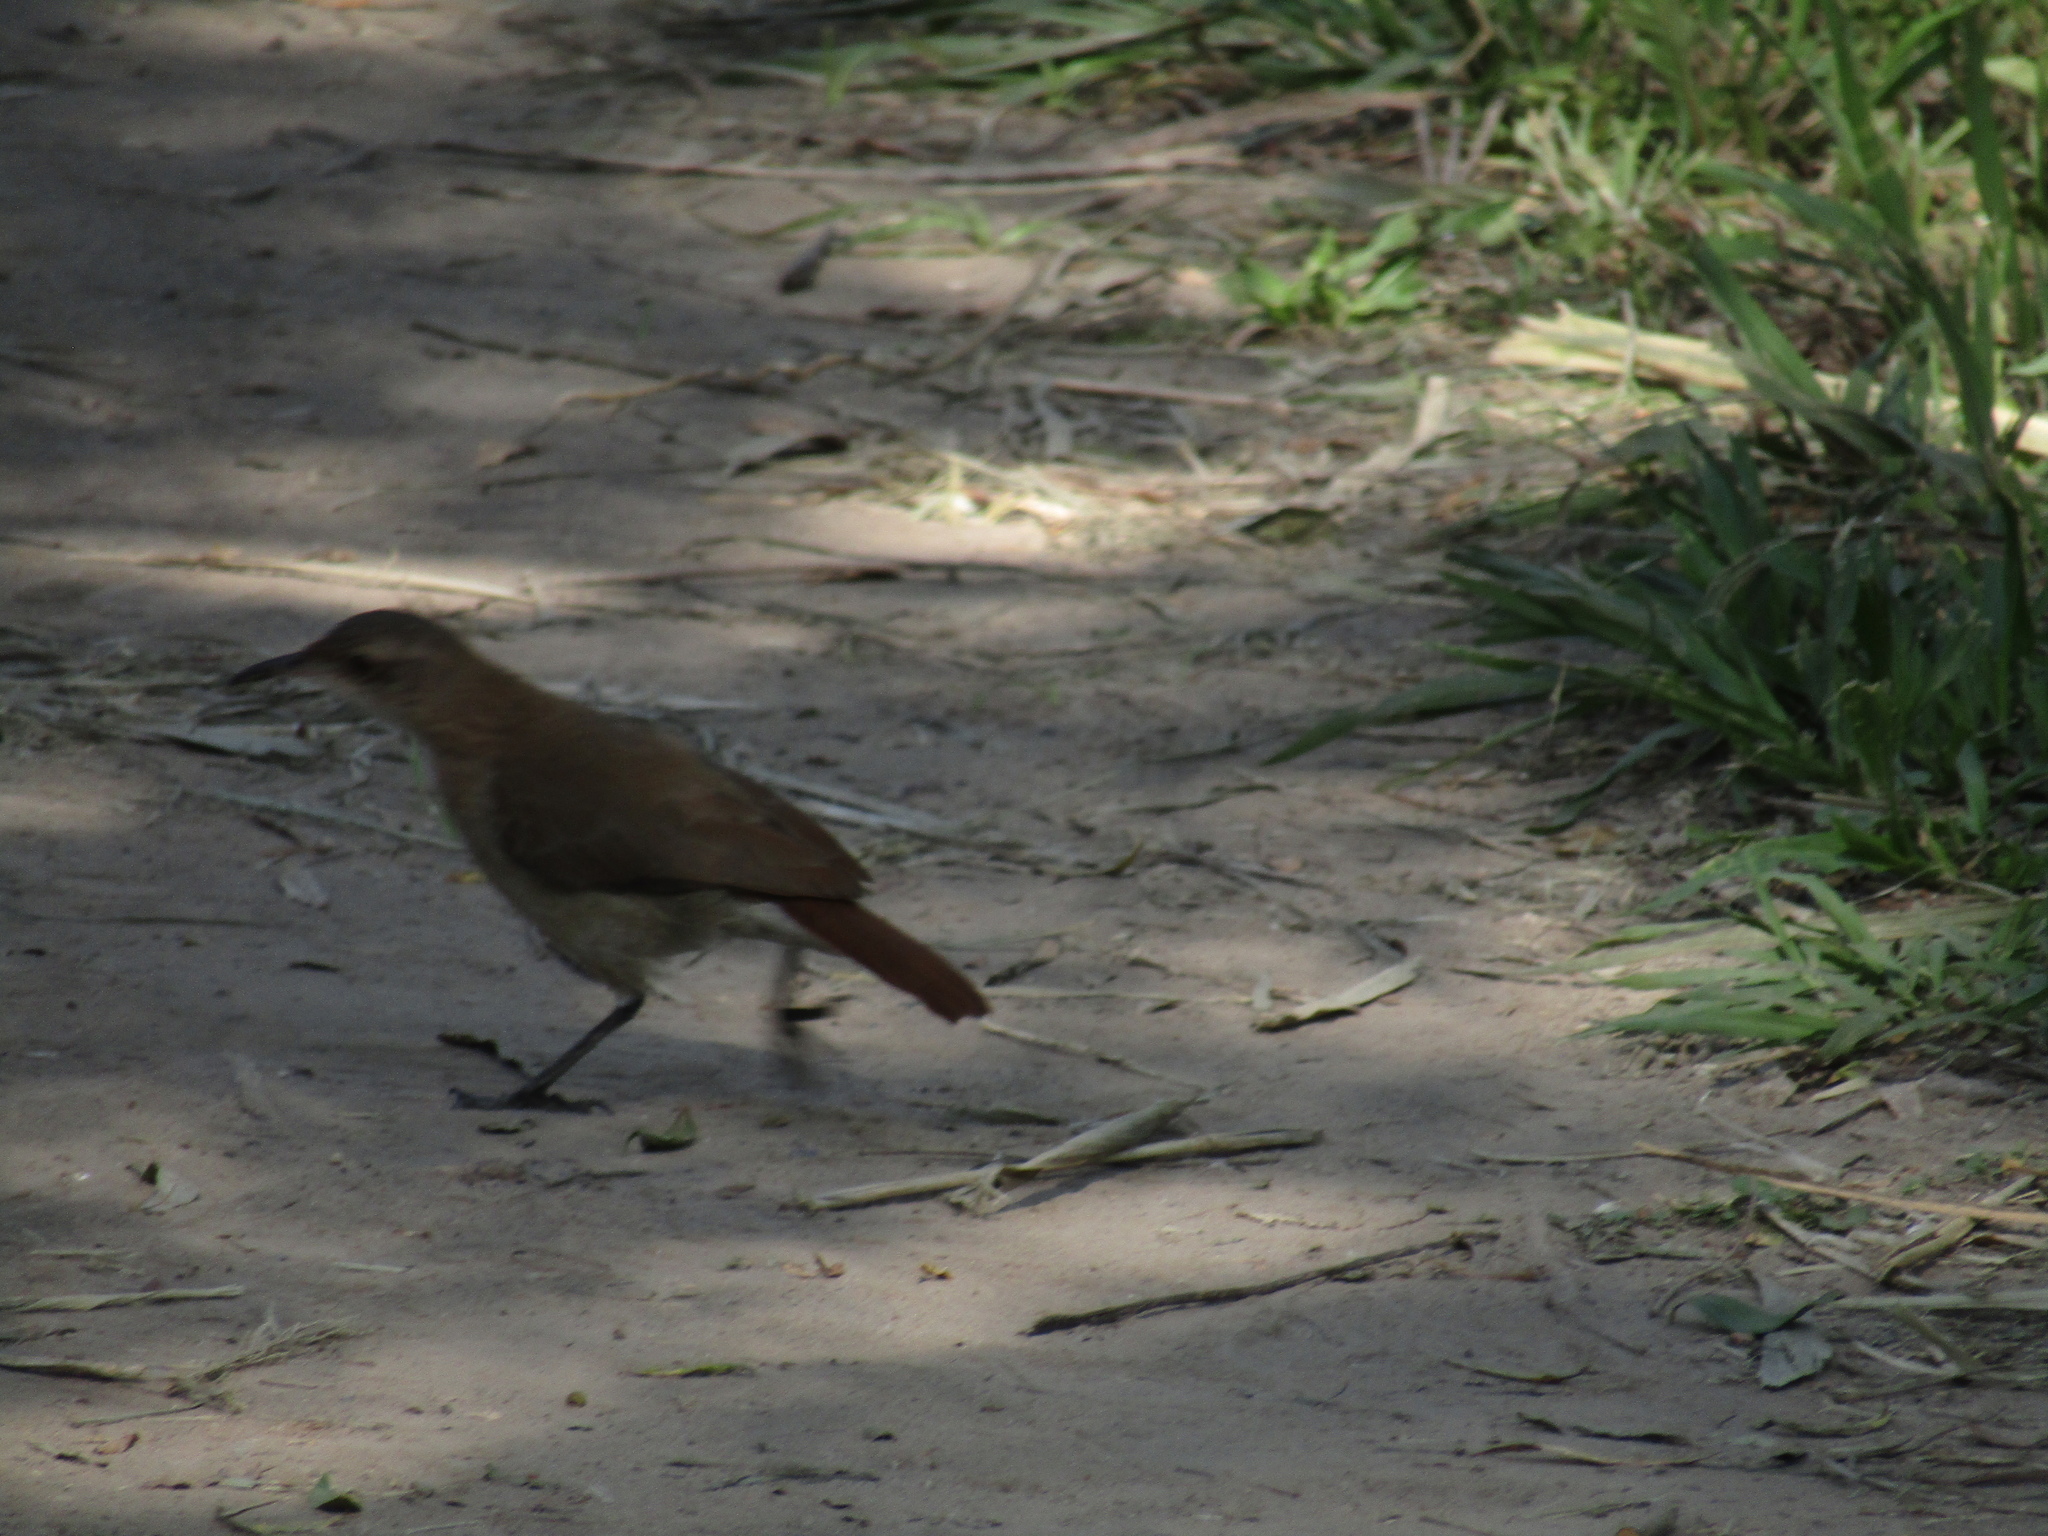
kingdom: Animalia
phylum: Chordata
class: Aves
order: Passeriformes
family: Furnariidae
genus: Furnarius
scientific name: Furnarius rufus
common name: Rufous hornero
